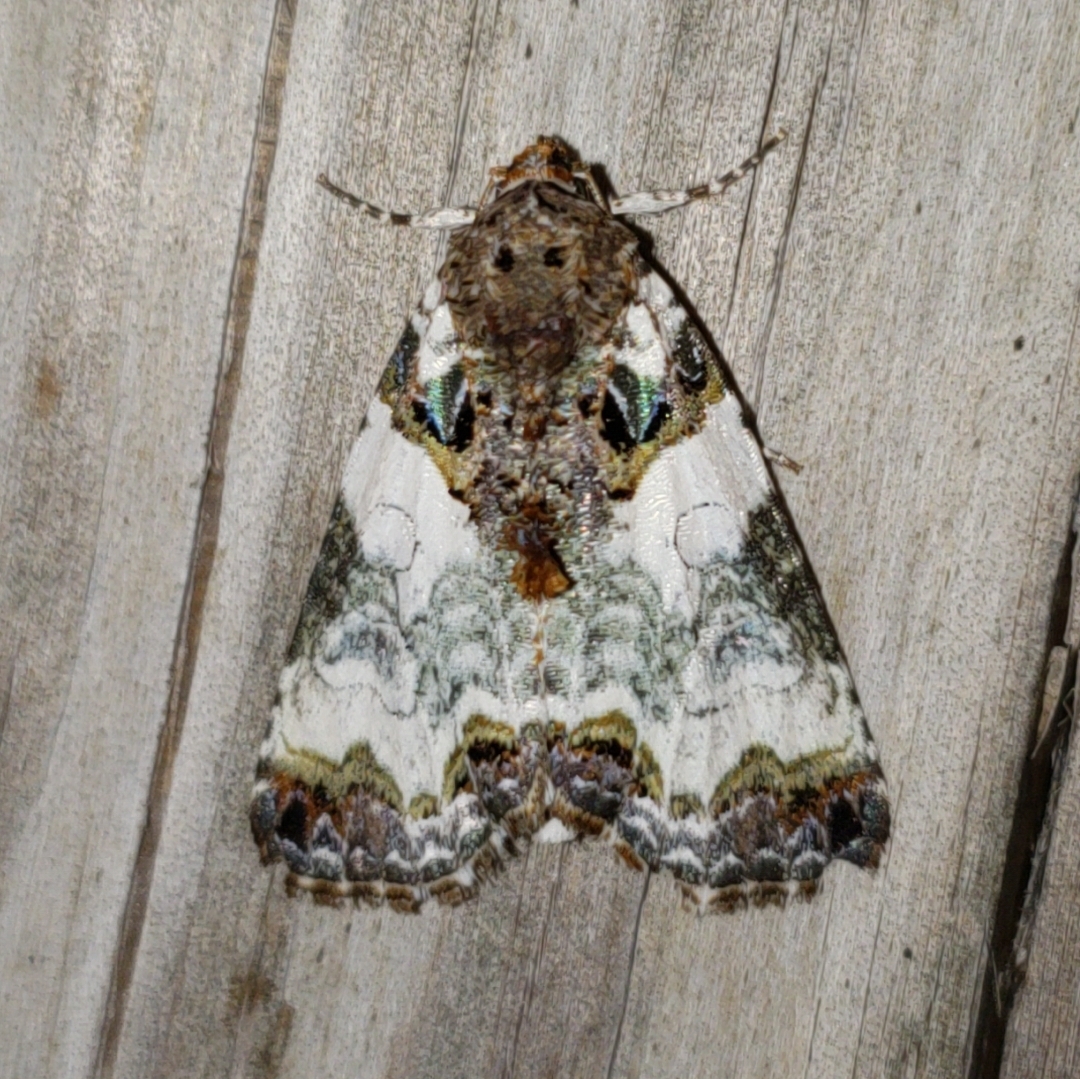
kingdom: Animalia
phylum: Arthropoda
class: Insecta
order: Lepidoptera
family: Noctuidae
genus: Cerma
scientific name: Cerma cerintha
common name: Tufted bird-dropping moth
